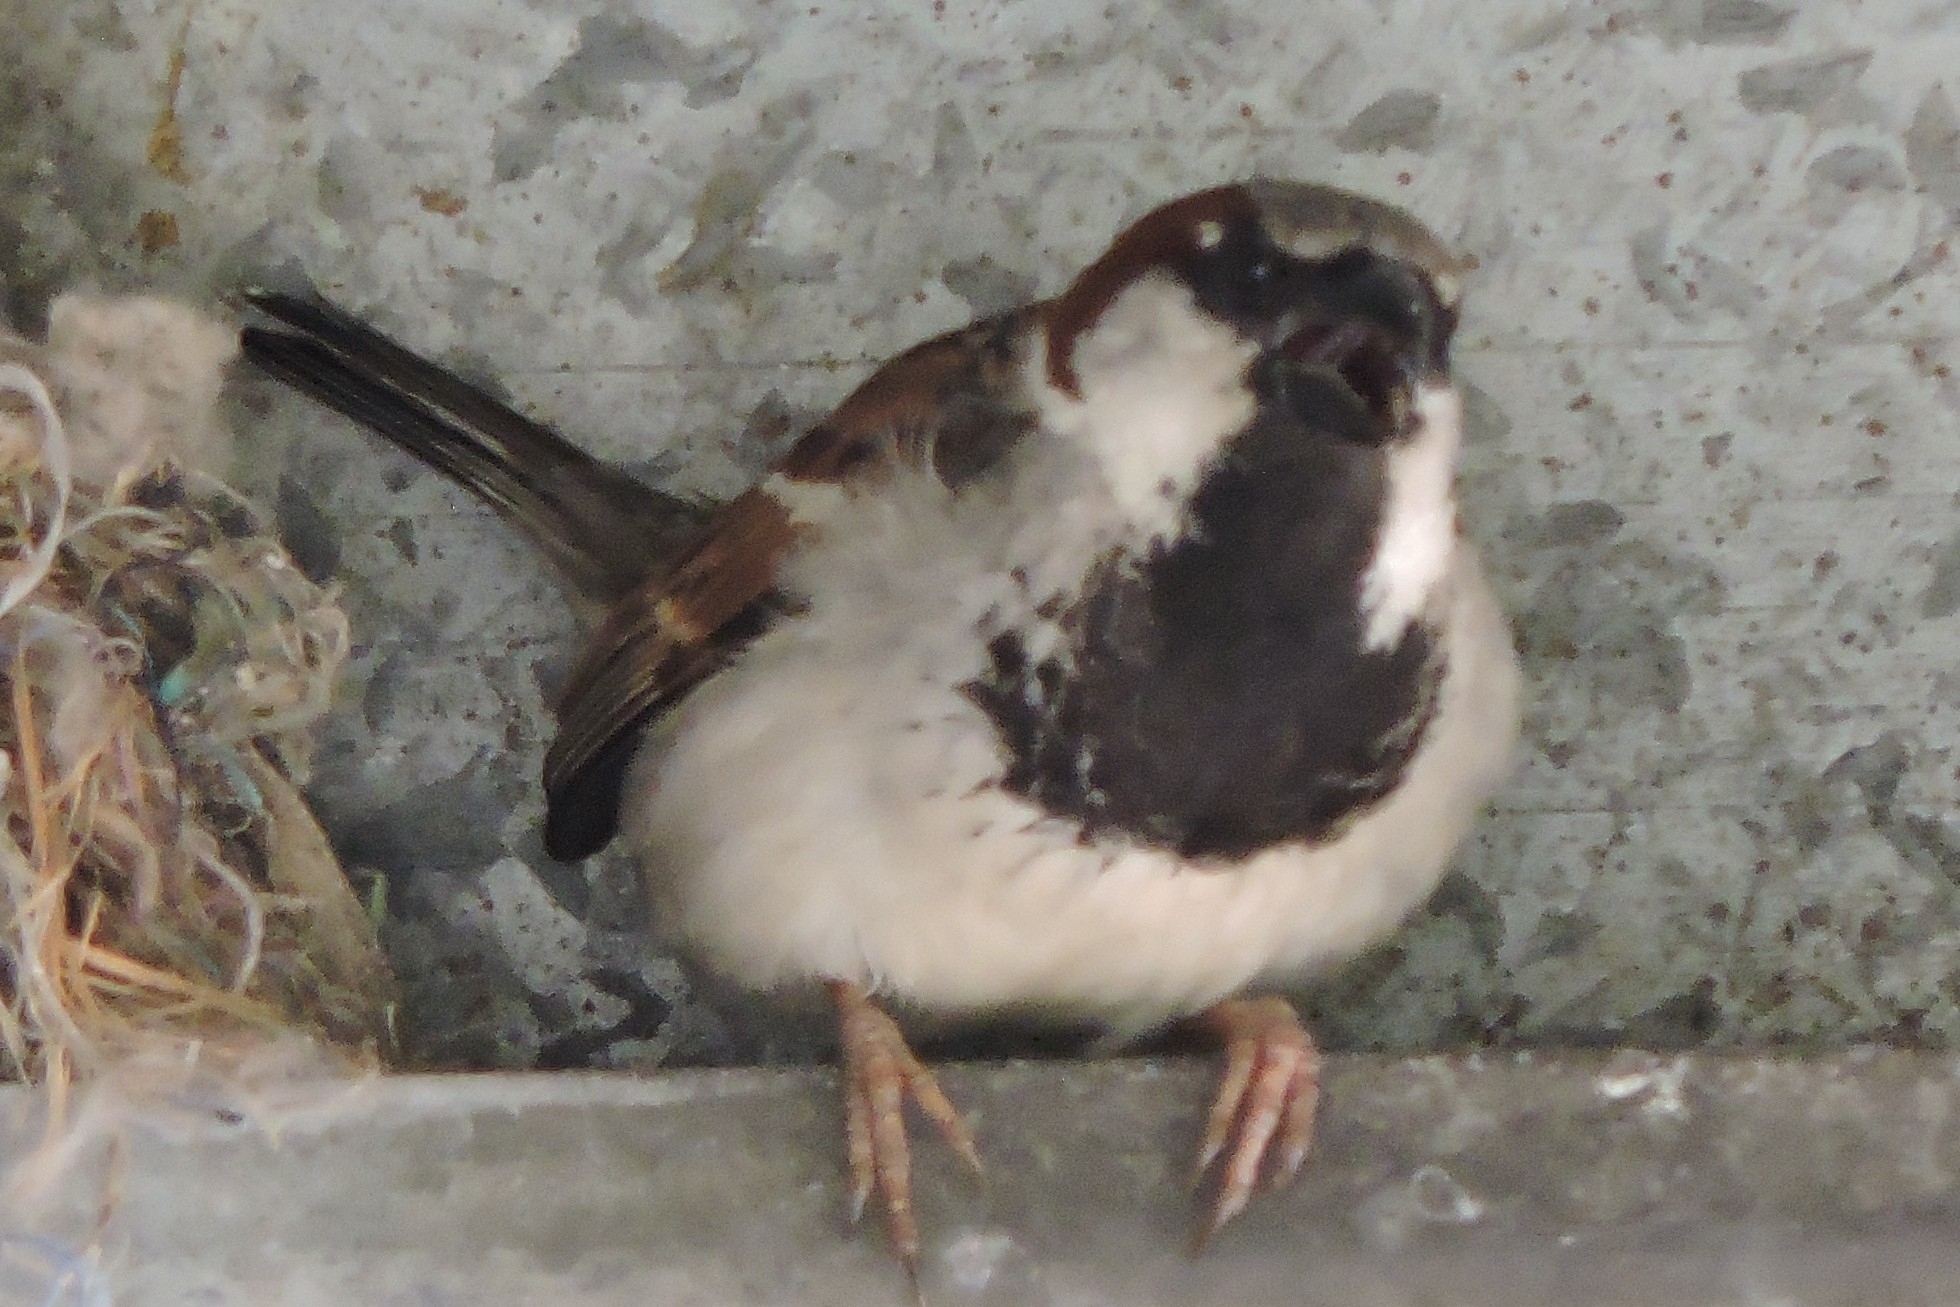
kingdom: Animalia
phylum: Chordata
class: Aves
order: Passeriformes
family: Passeridae
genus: Passer
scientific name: Passer domesticus
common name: House sparrow
